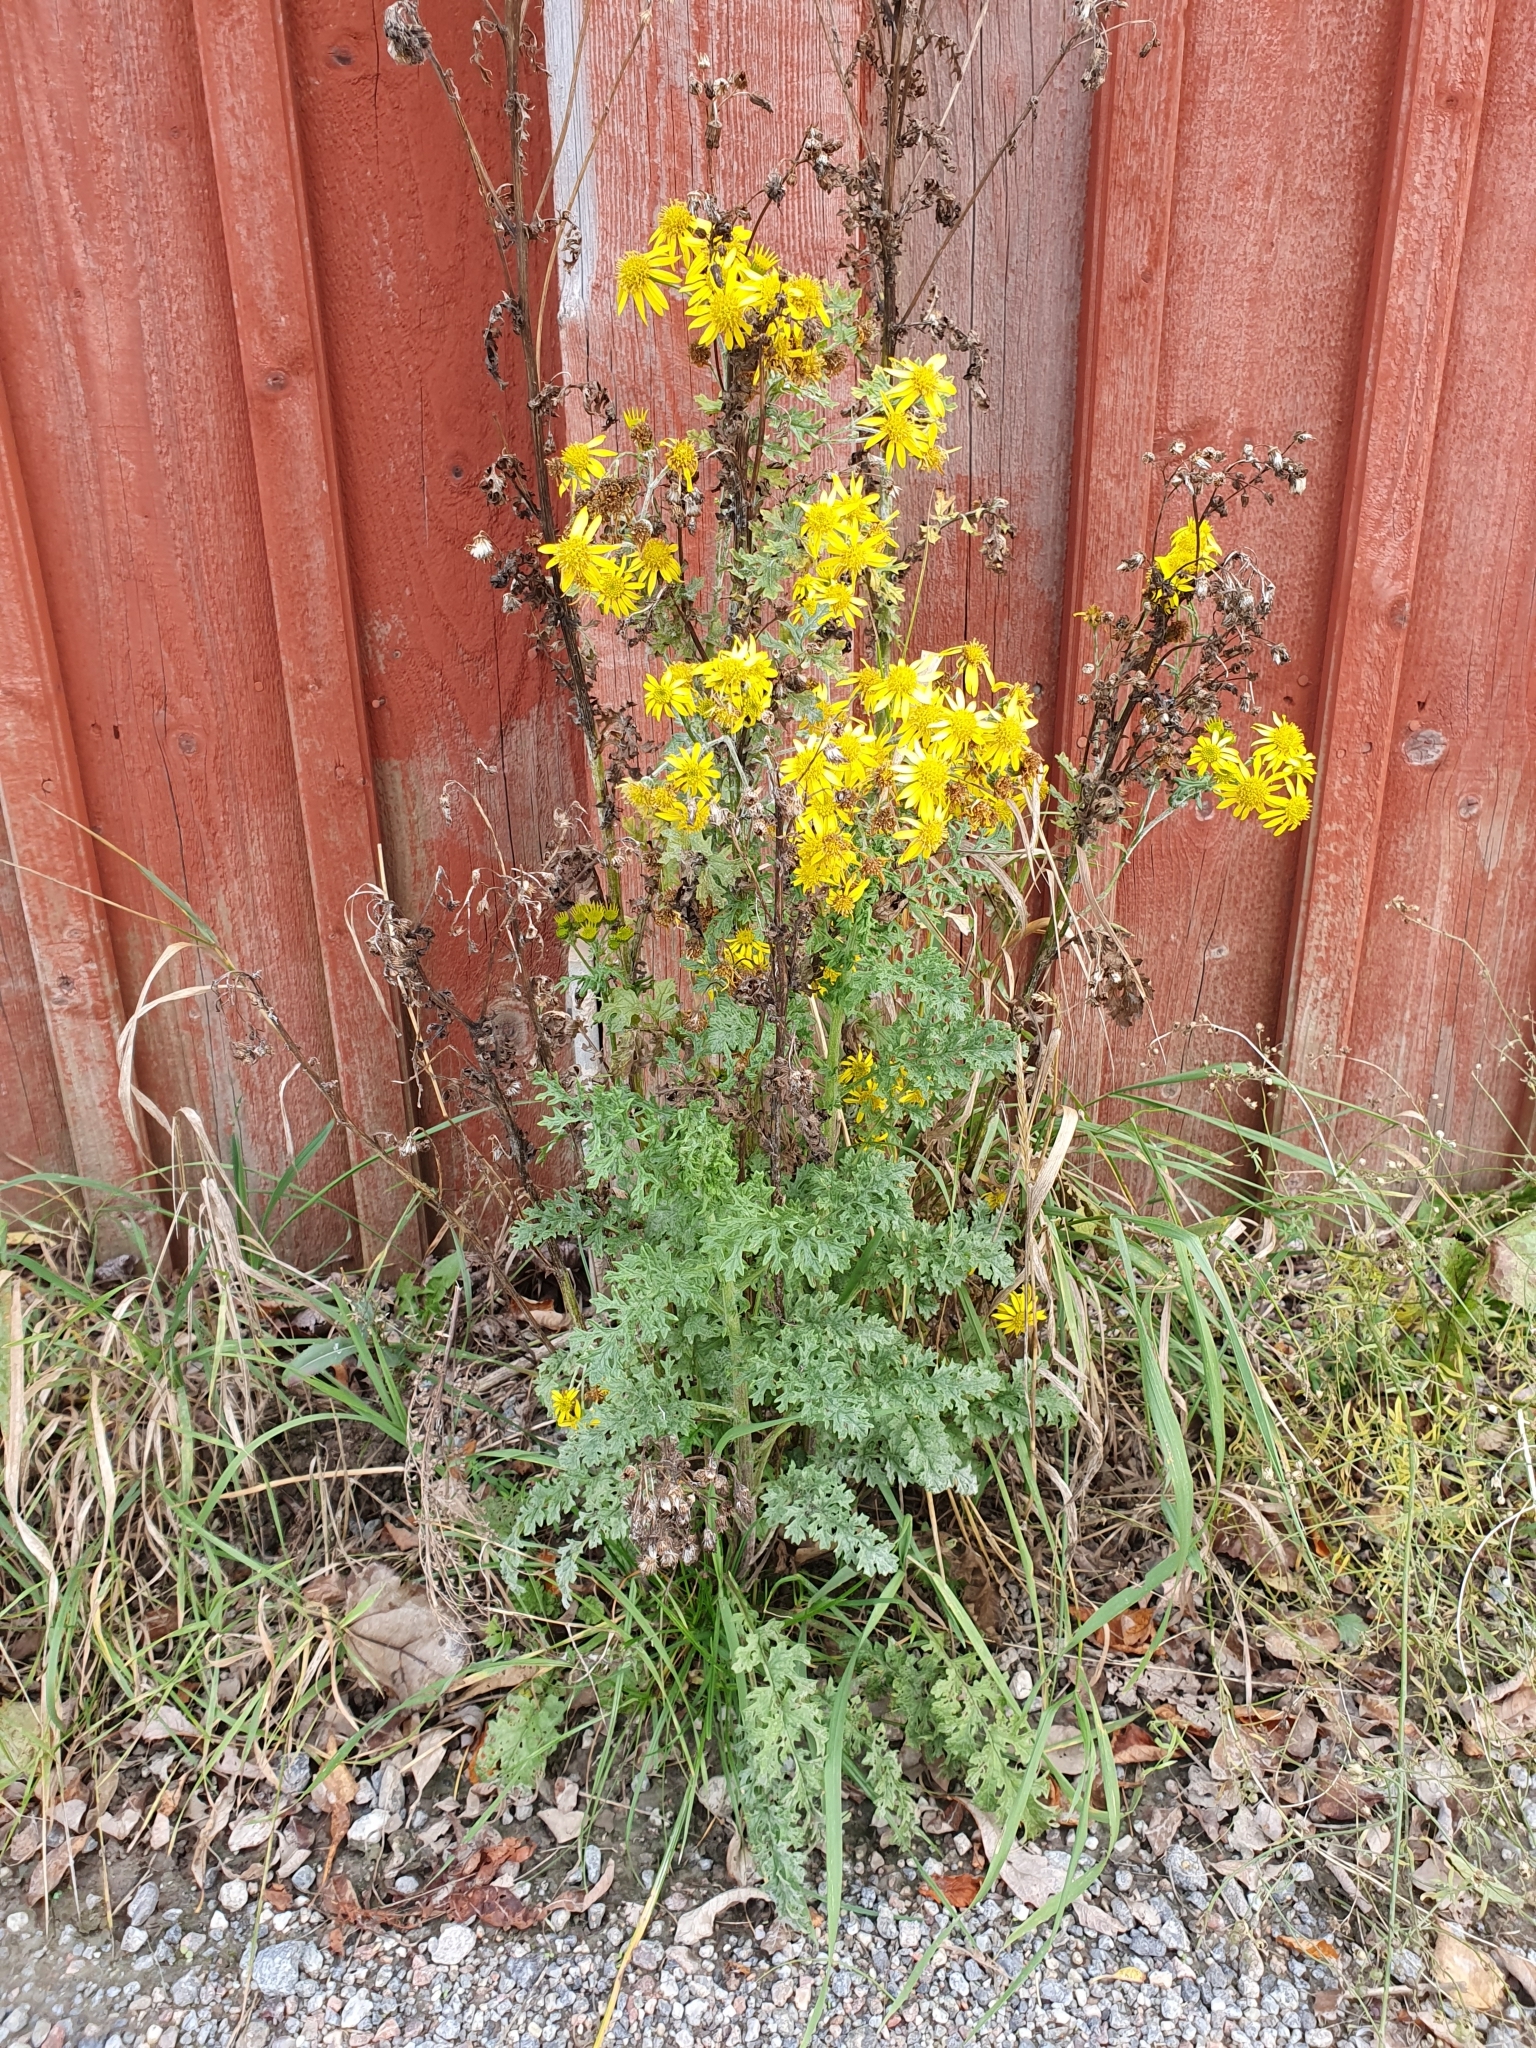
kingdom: Plantae
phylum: Tracheophyta
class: Magnoliopsida
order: Asterales
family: Asteraceae
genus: Jacobaea
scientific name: Jacobaea vulgaris
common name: Stinking willie
